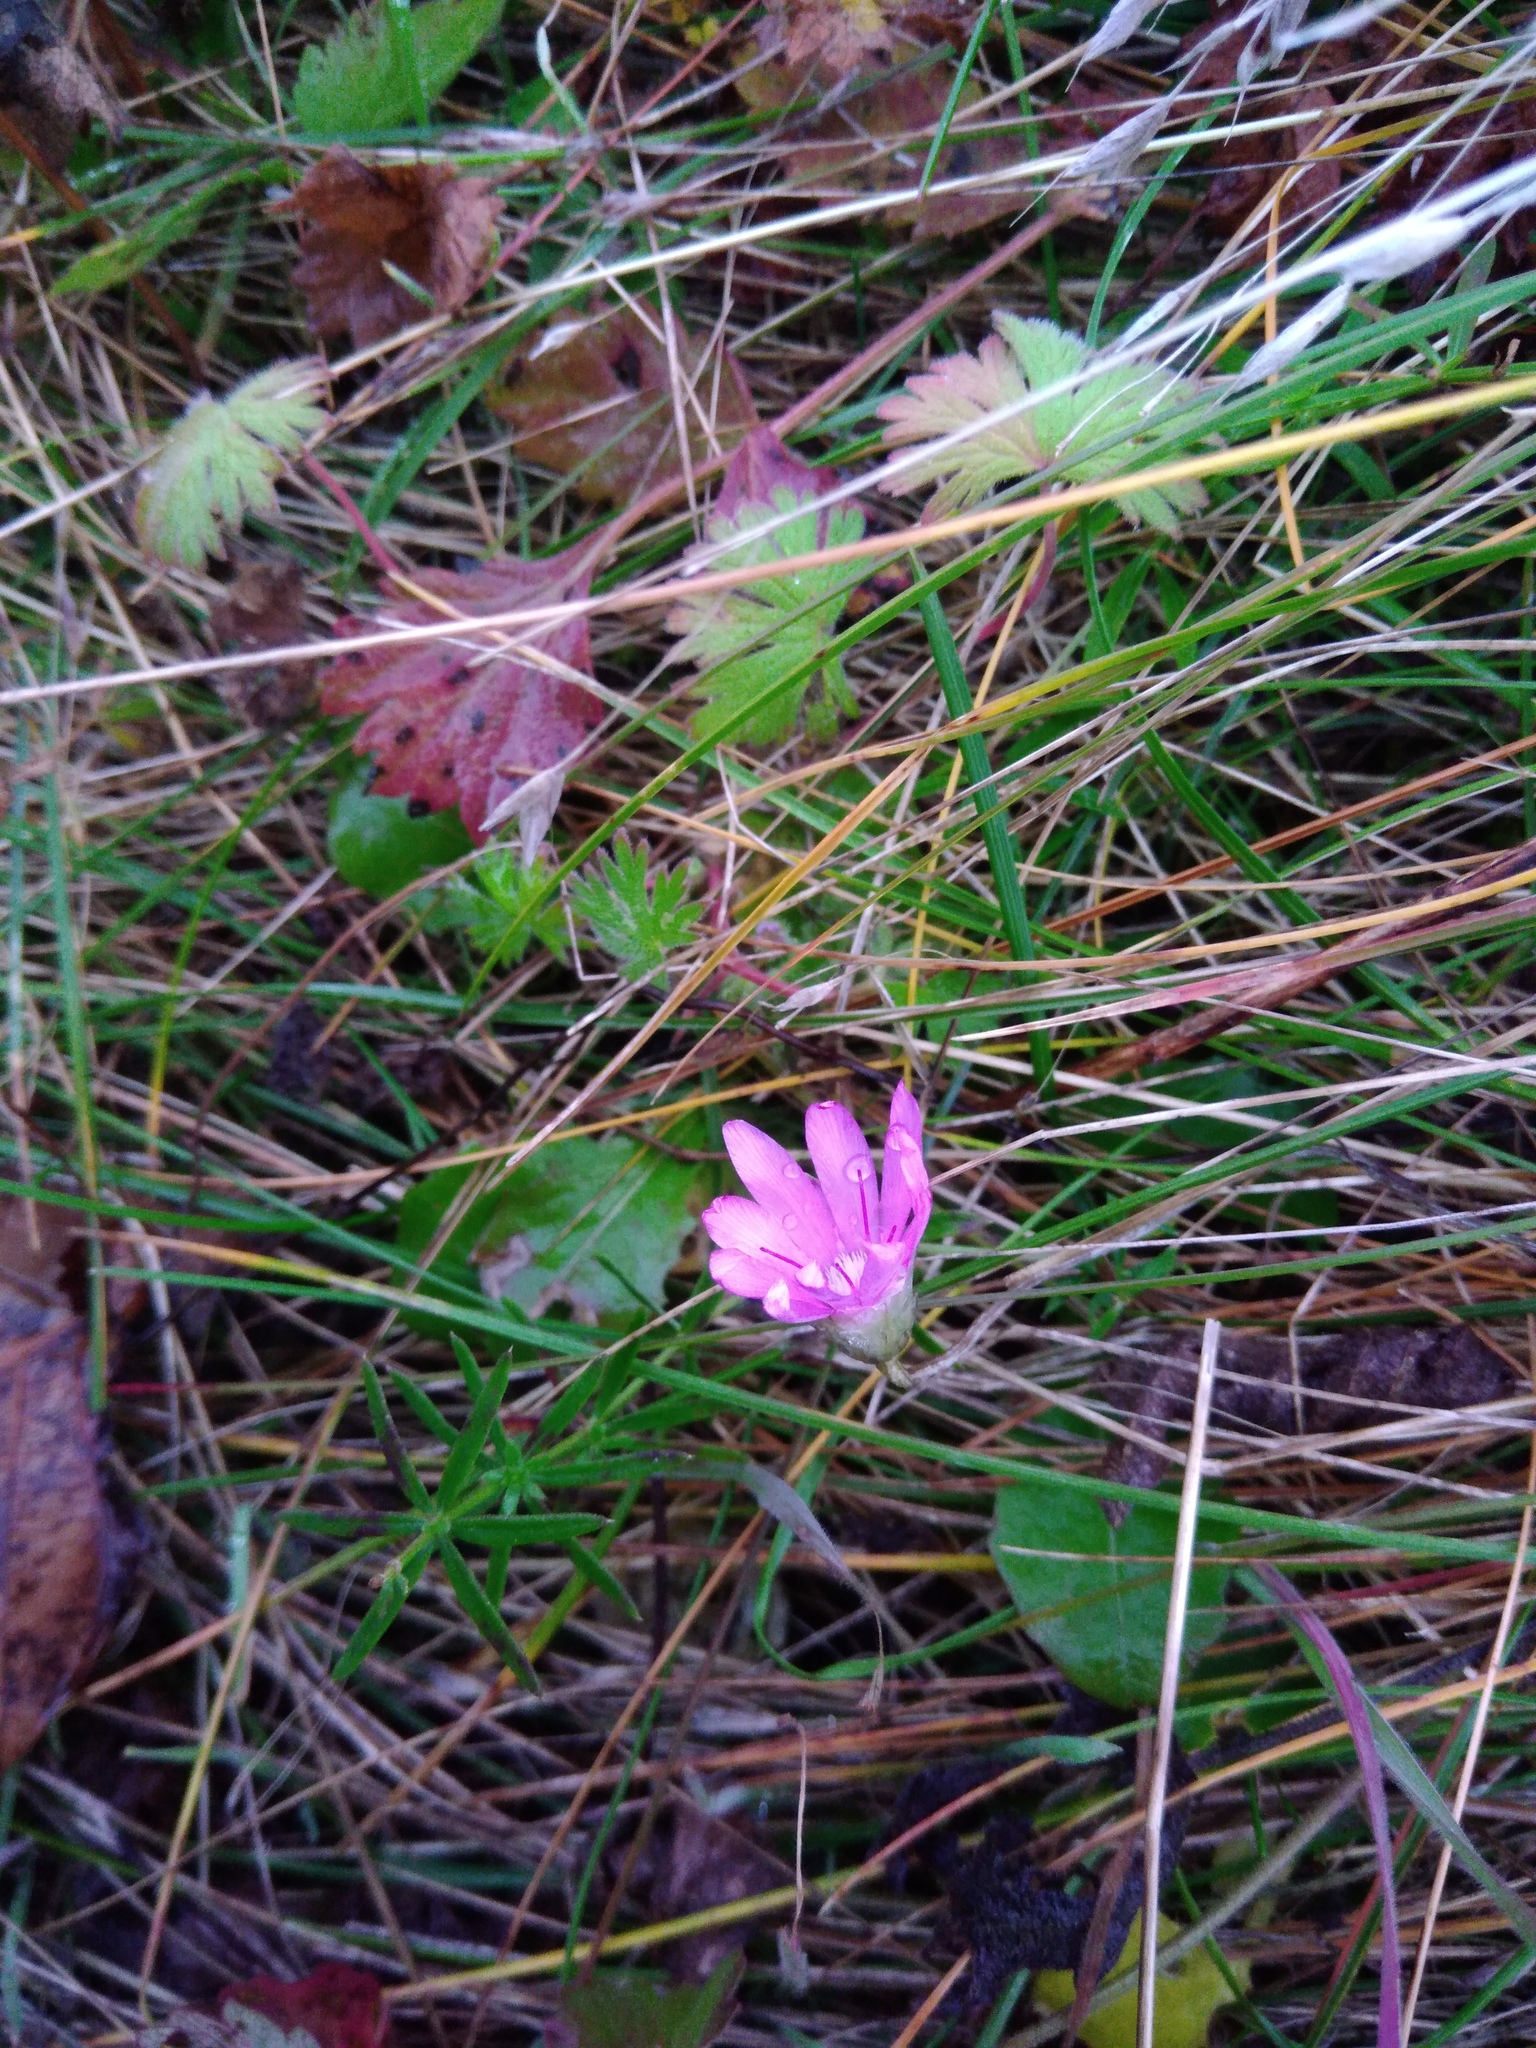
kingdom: Plantae
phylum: Tracheophyta
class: Magnoliopsida
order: Asterales
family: Asteraceae
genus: Xeranthemum
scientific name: Xeranthemum annuum
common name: Immortelle
